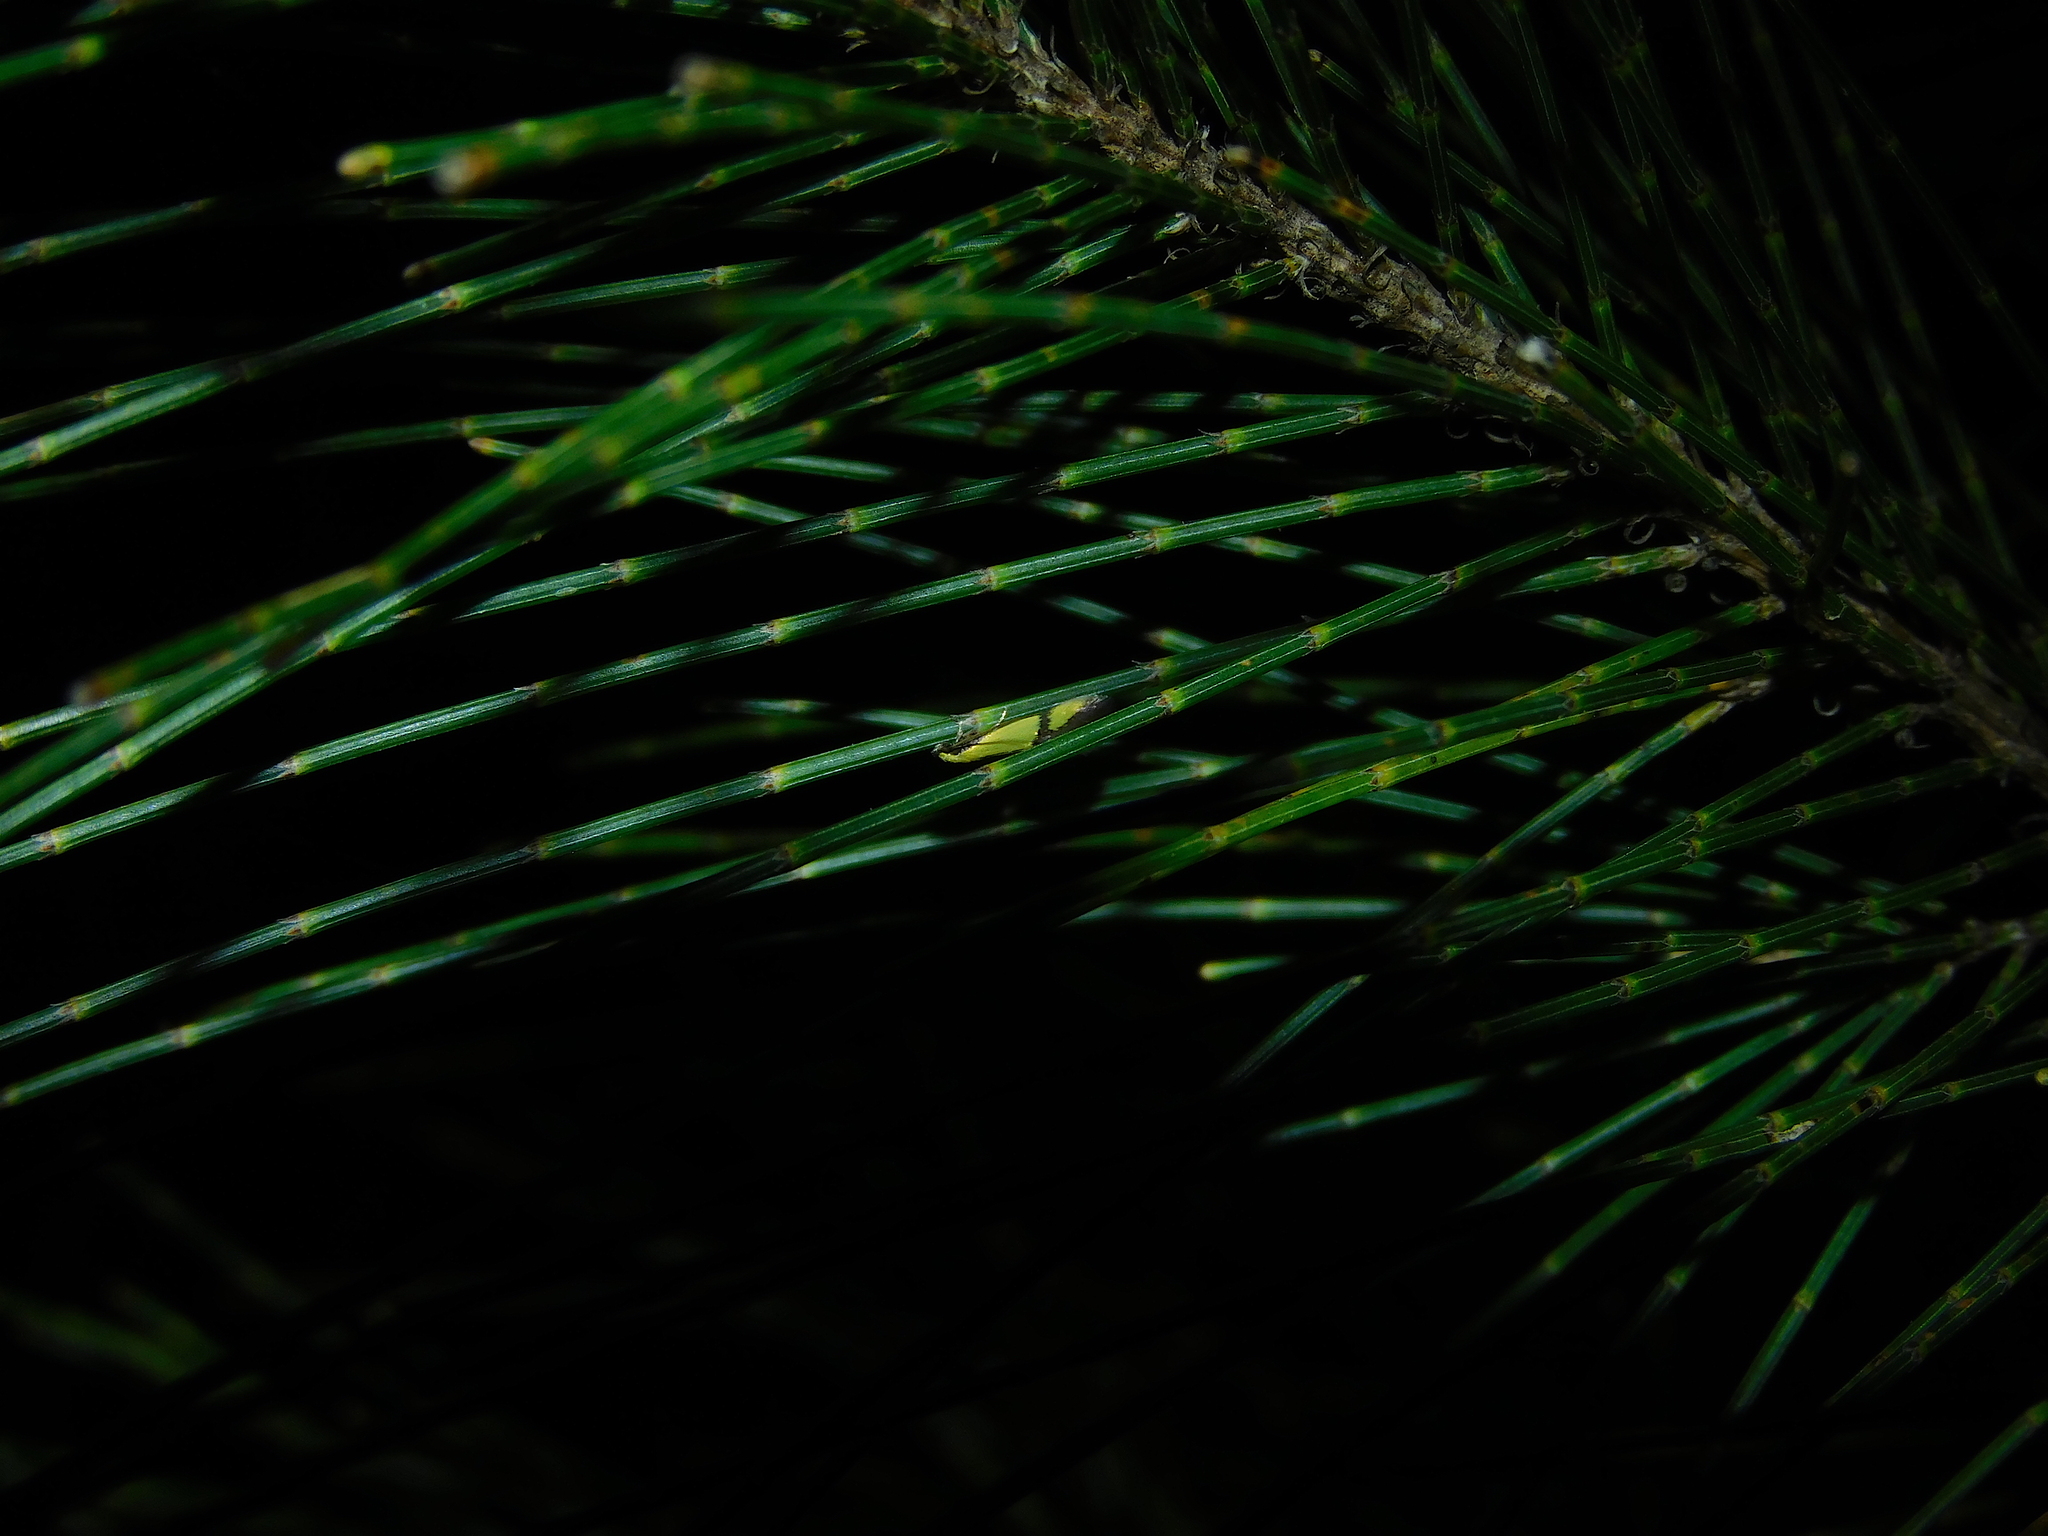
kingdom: Animalia
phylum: Arthropoda
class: Insecta
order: Lepidoptera
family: Tineidae
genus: Opogona
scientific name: Opogona stereodyta
